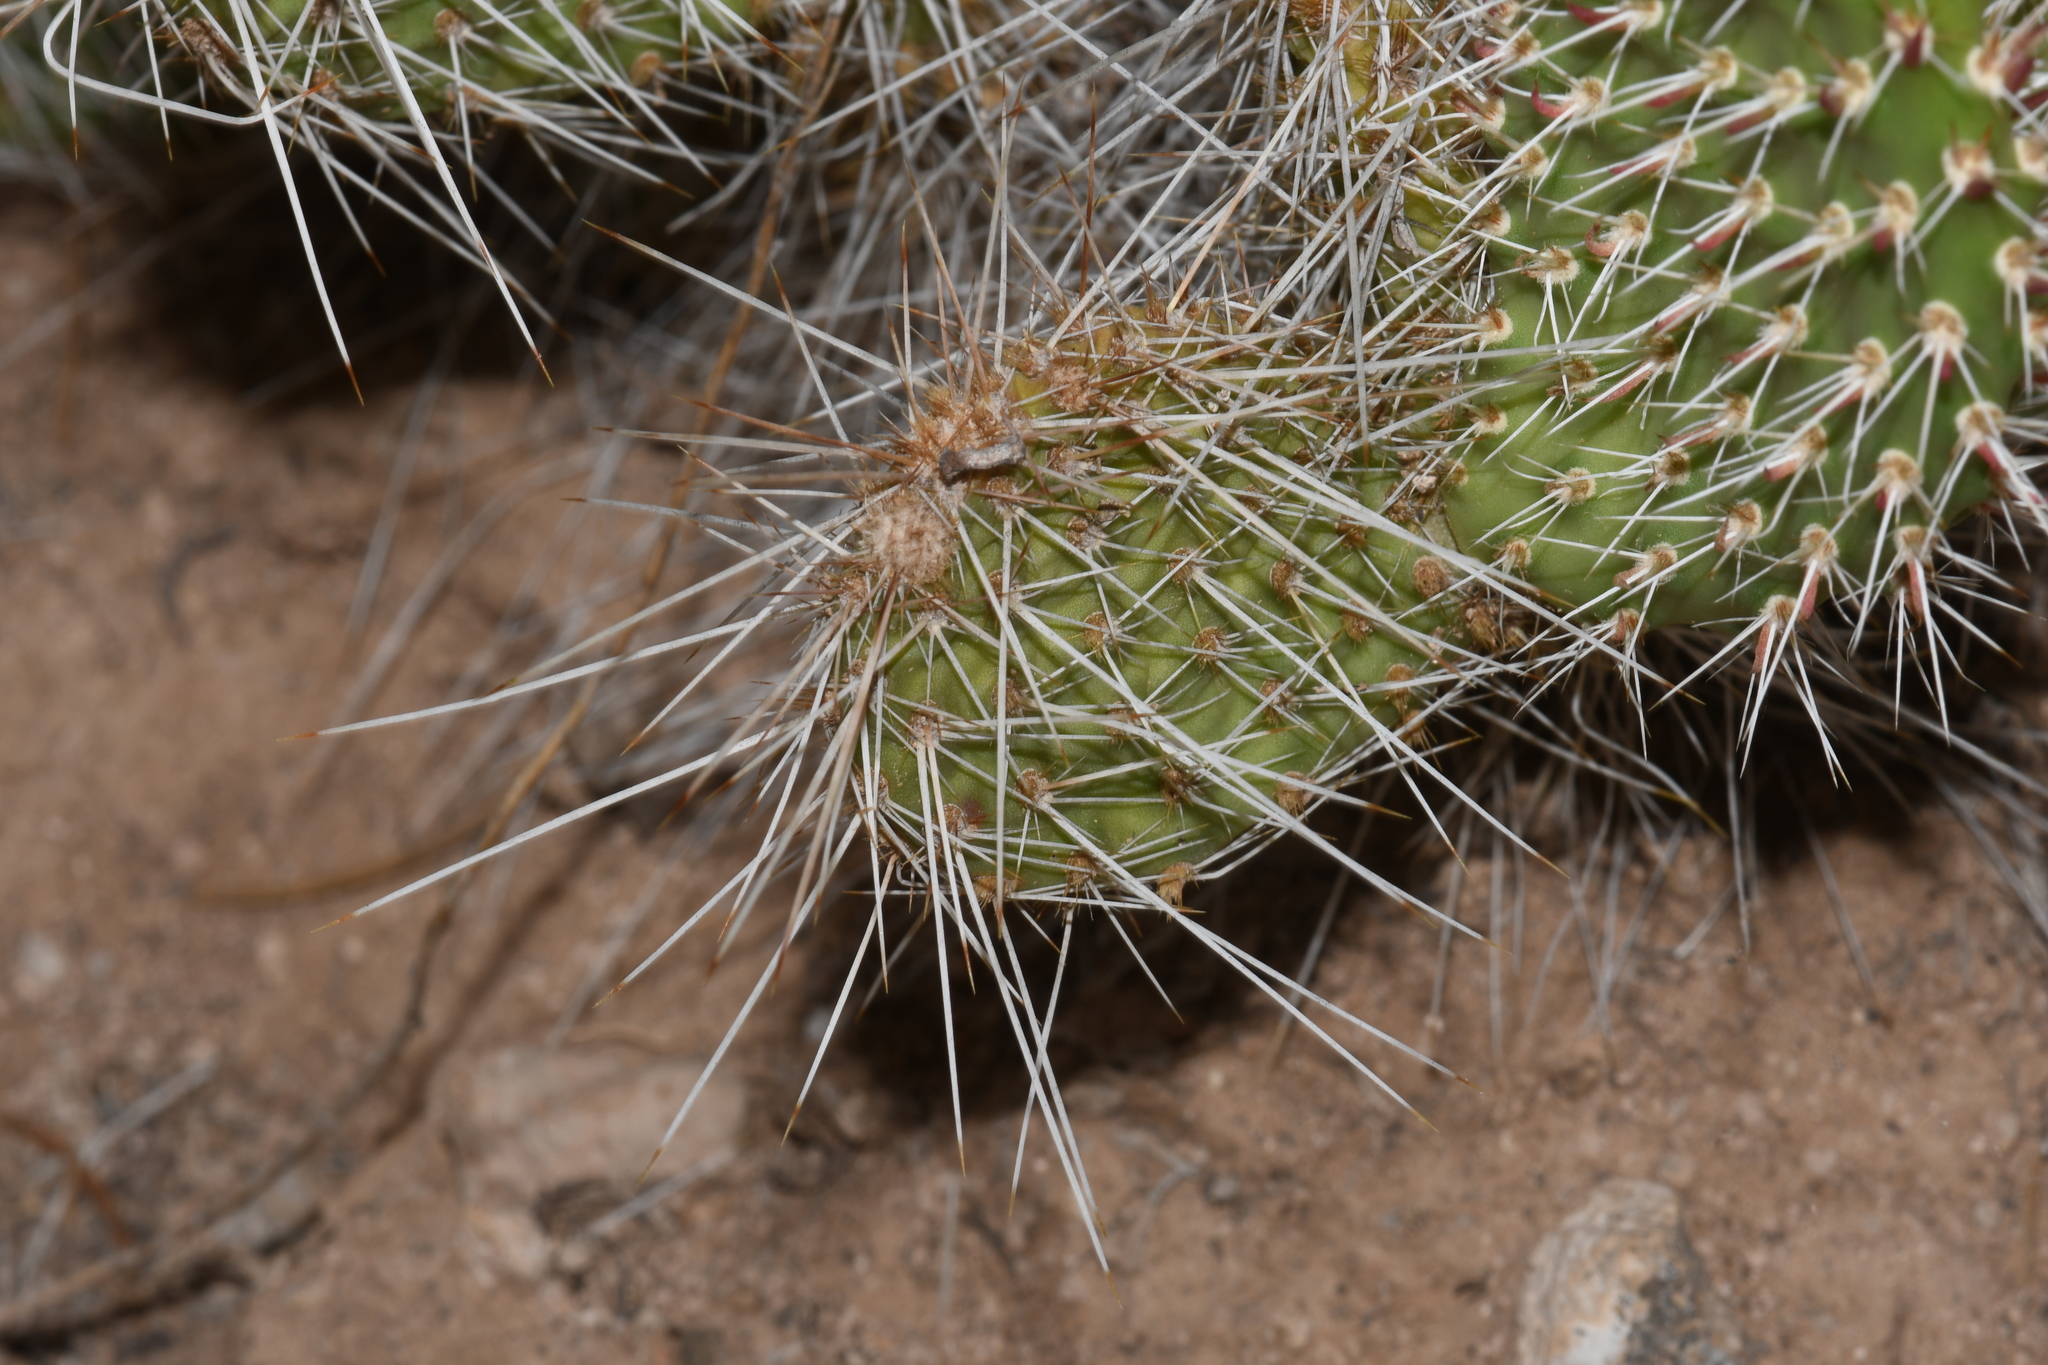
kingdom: Plantae
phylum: Tracheophyta
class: Magnoliopsida
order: Caryophyllales
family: Cactaceae
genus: Opuntia
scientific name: Opuntia polyacantha
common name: Plains prickly-pear
